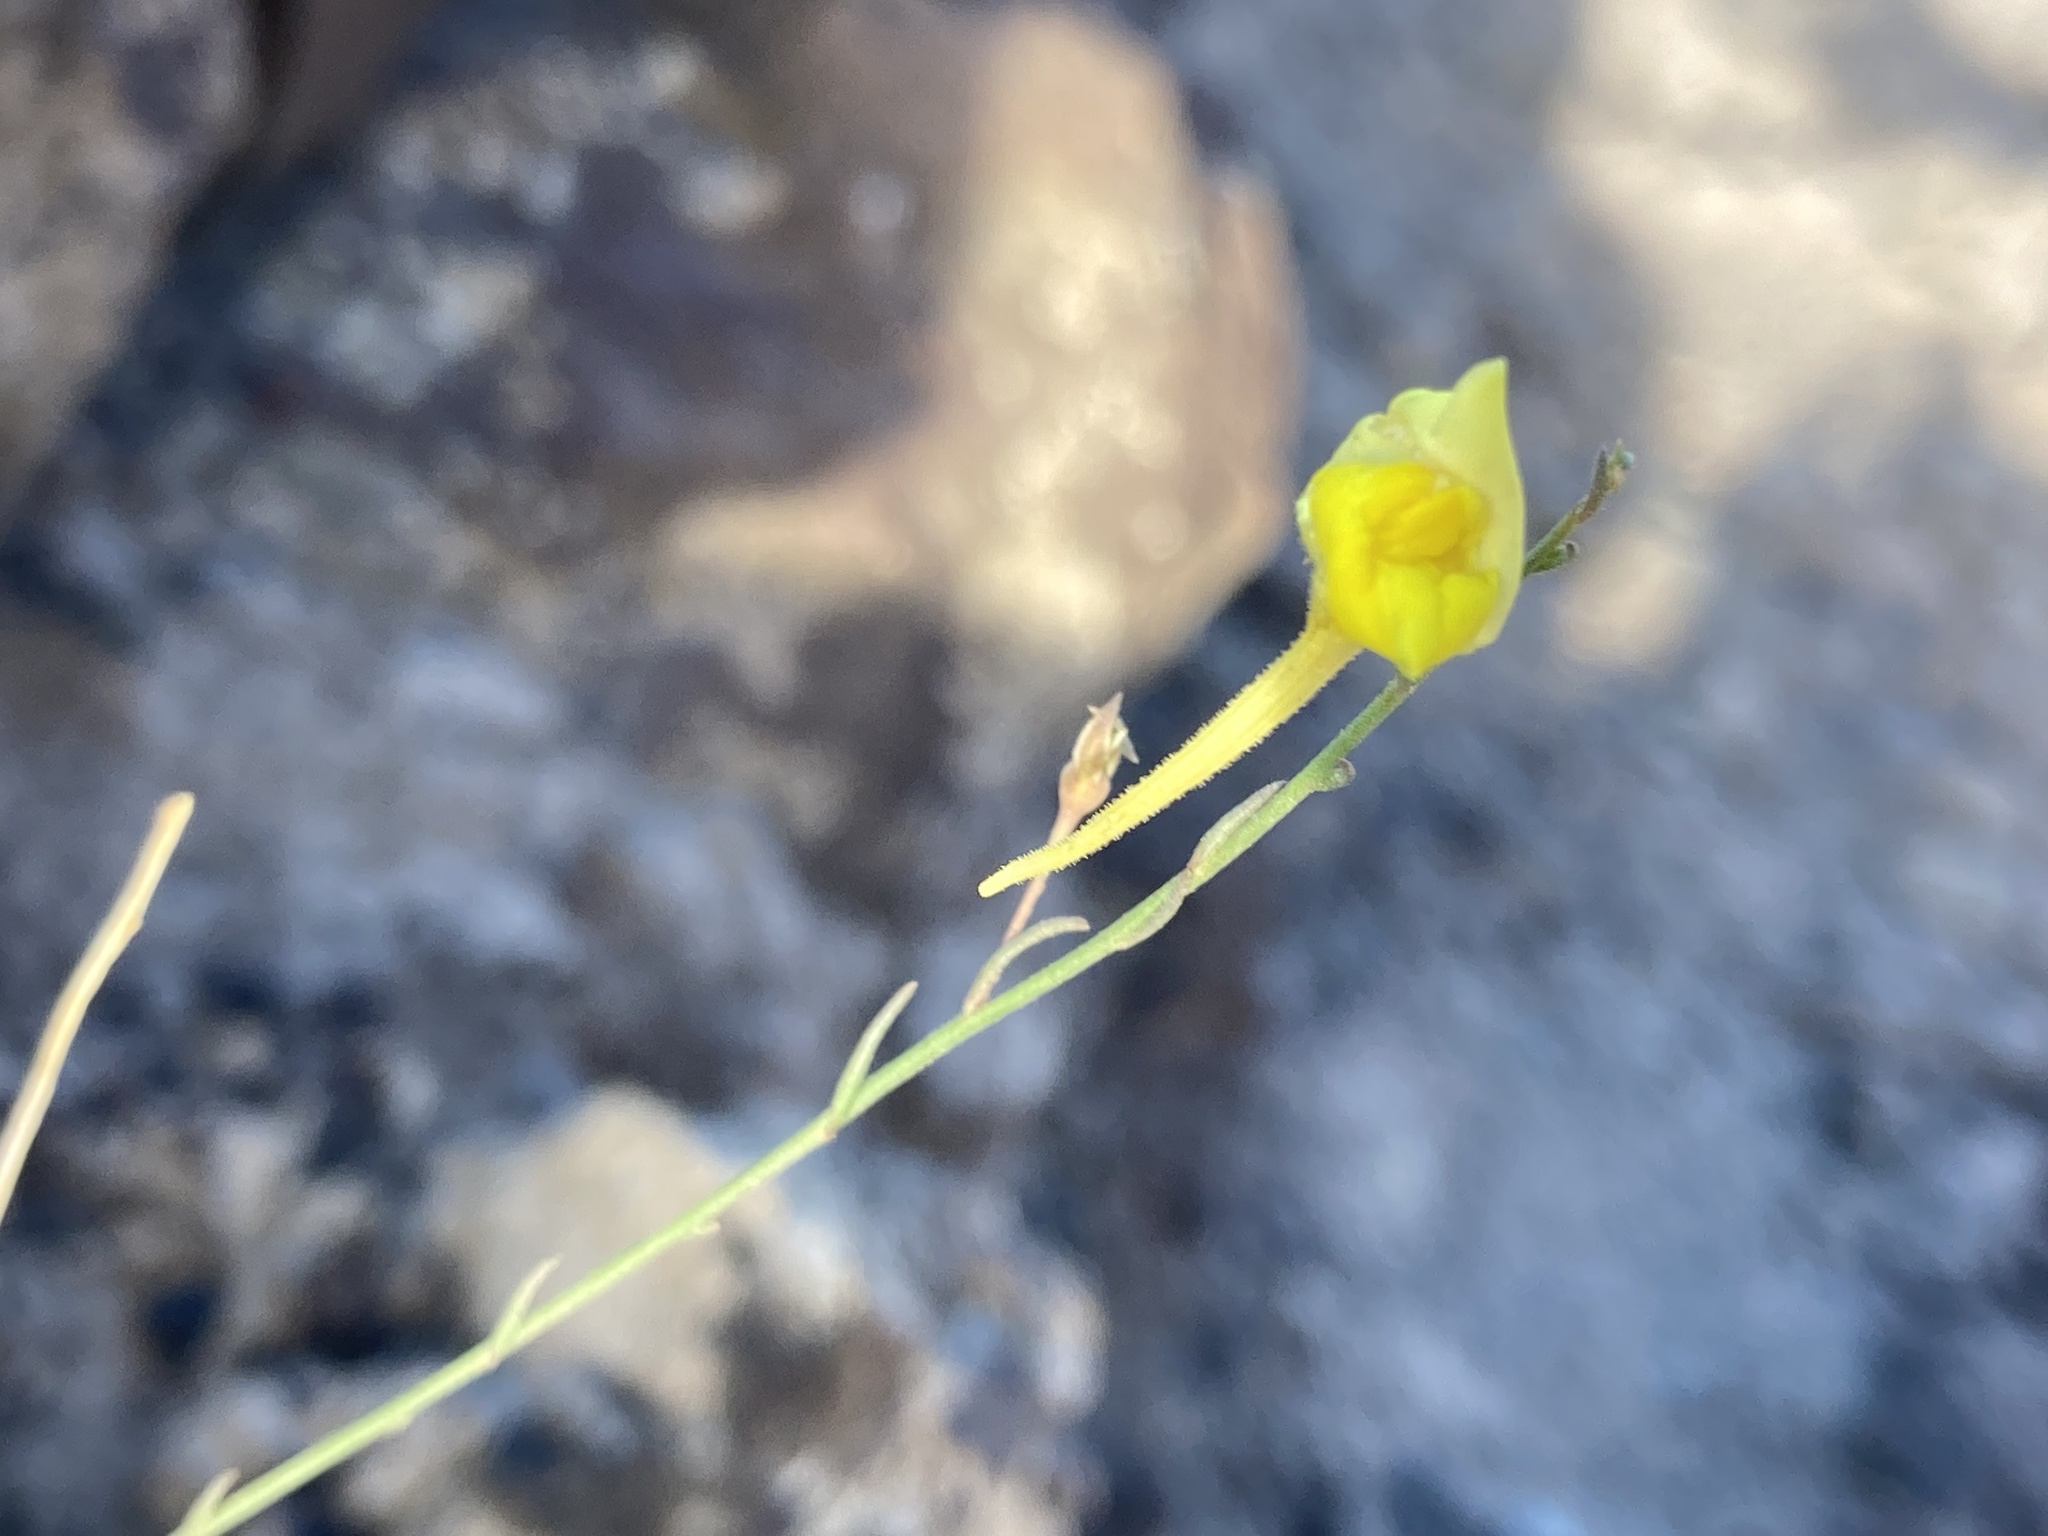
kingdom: Plantae
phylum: Tracheophyta
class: Magnoliopsida
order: Lamiales
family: Plantaginaceae
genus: Nanorrhinum
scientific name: Nanorrhinum scoparium
